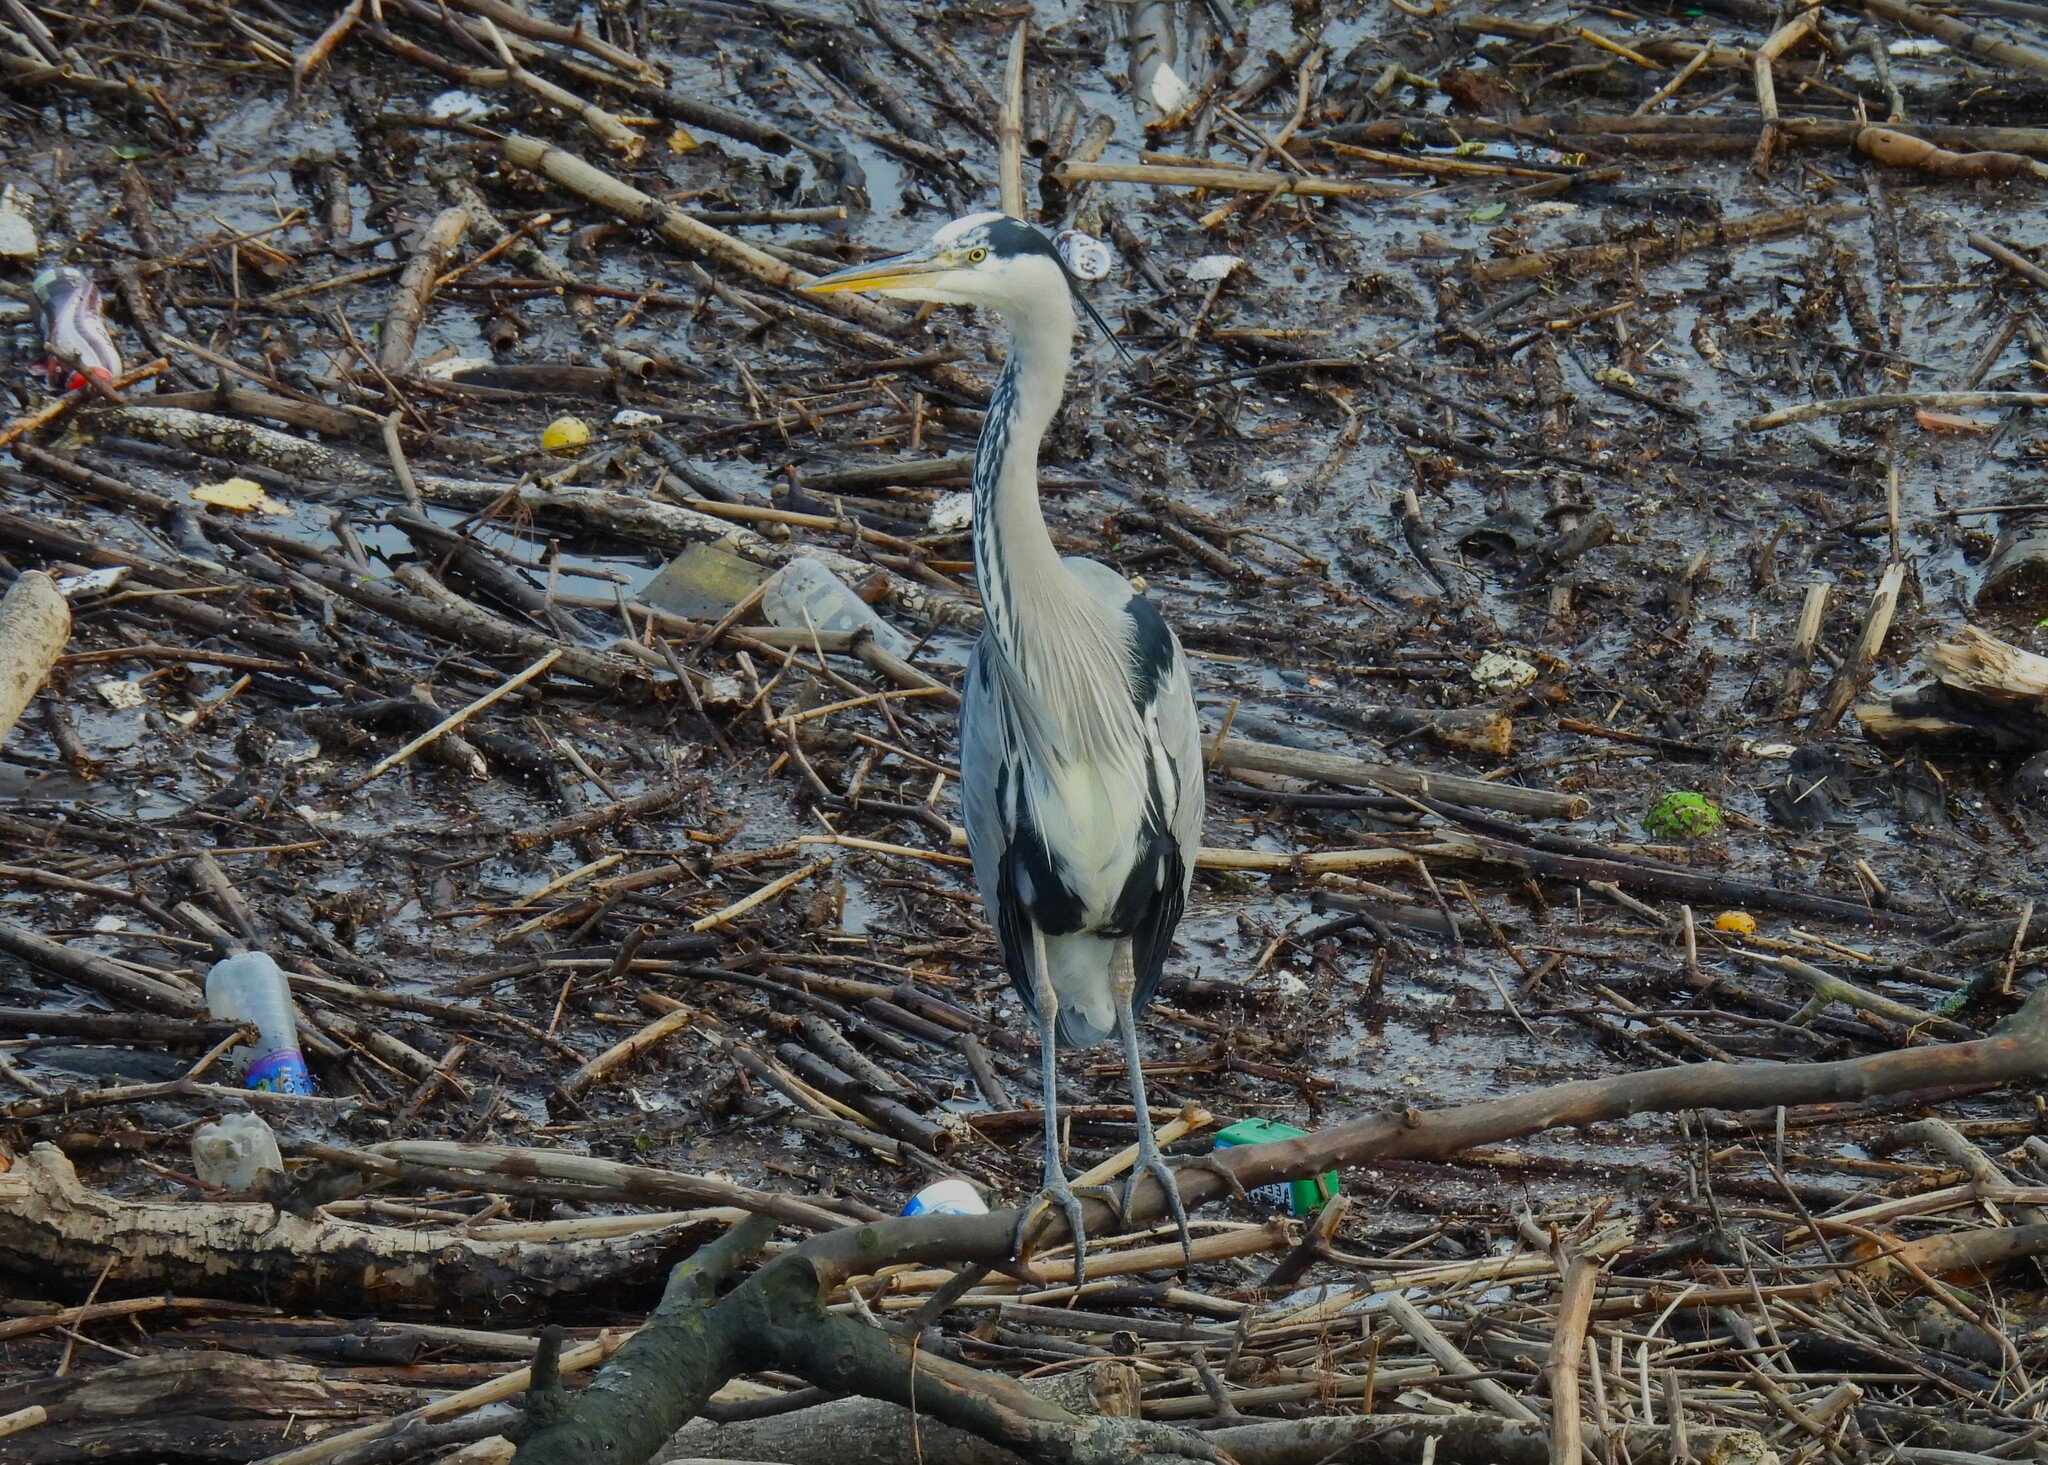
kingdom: Animalia
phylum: Chordata
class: Aves
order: Pelecaniformes
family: Ardeidae
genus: Ardea
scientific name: Ardea cinerea
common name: Grey heron
